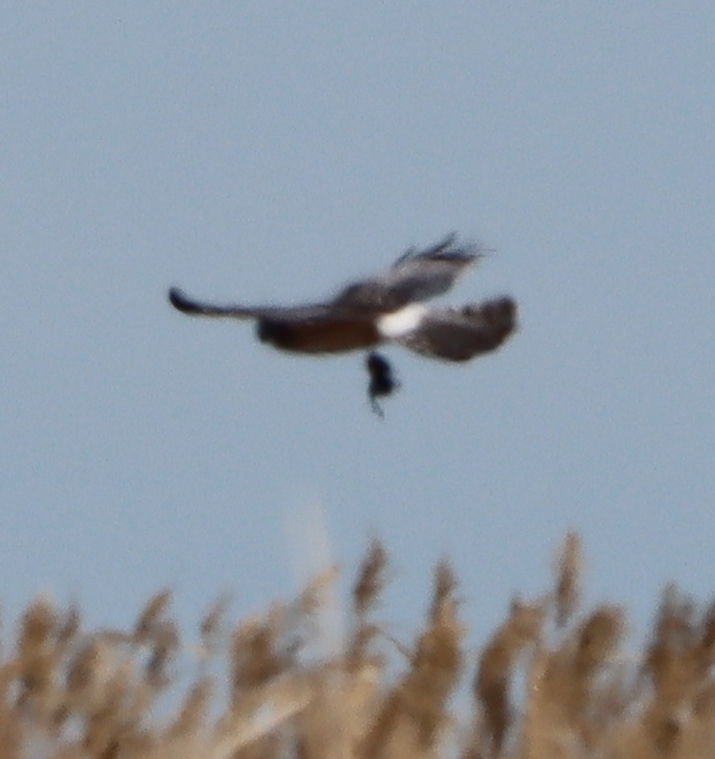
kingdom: Animalia
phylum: Chordata
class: Aves
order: Accipitriformes
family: Accipitridae
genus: Circus
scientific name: Circus cyaneus
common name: Hen harrier
